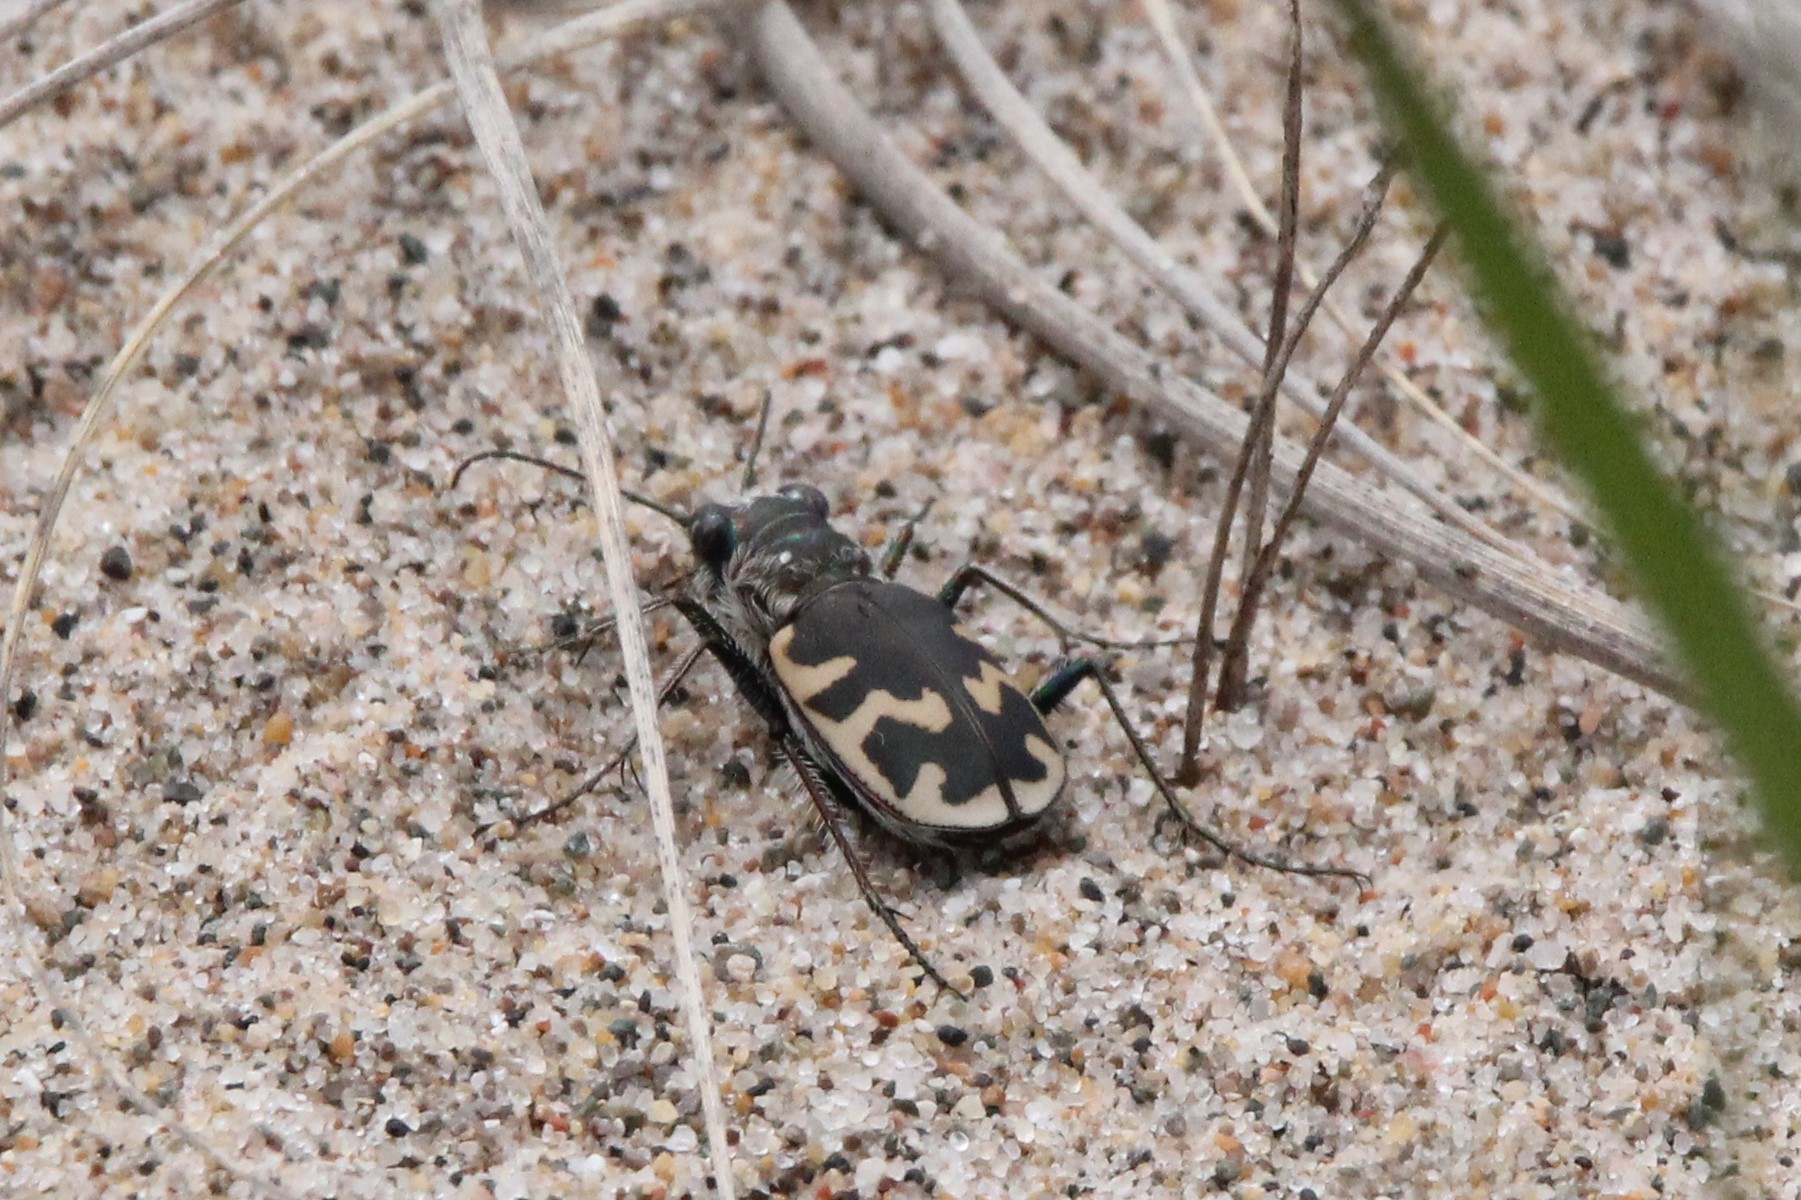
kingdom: Animalia
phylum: Arthropoda
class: Insecta
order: Coleoptera
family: Carabidae
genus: Cicindela
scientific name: Cicindela formosa
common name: Big sand tiger beetle
